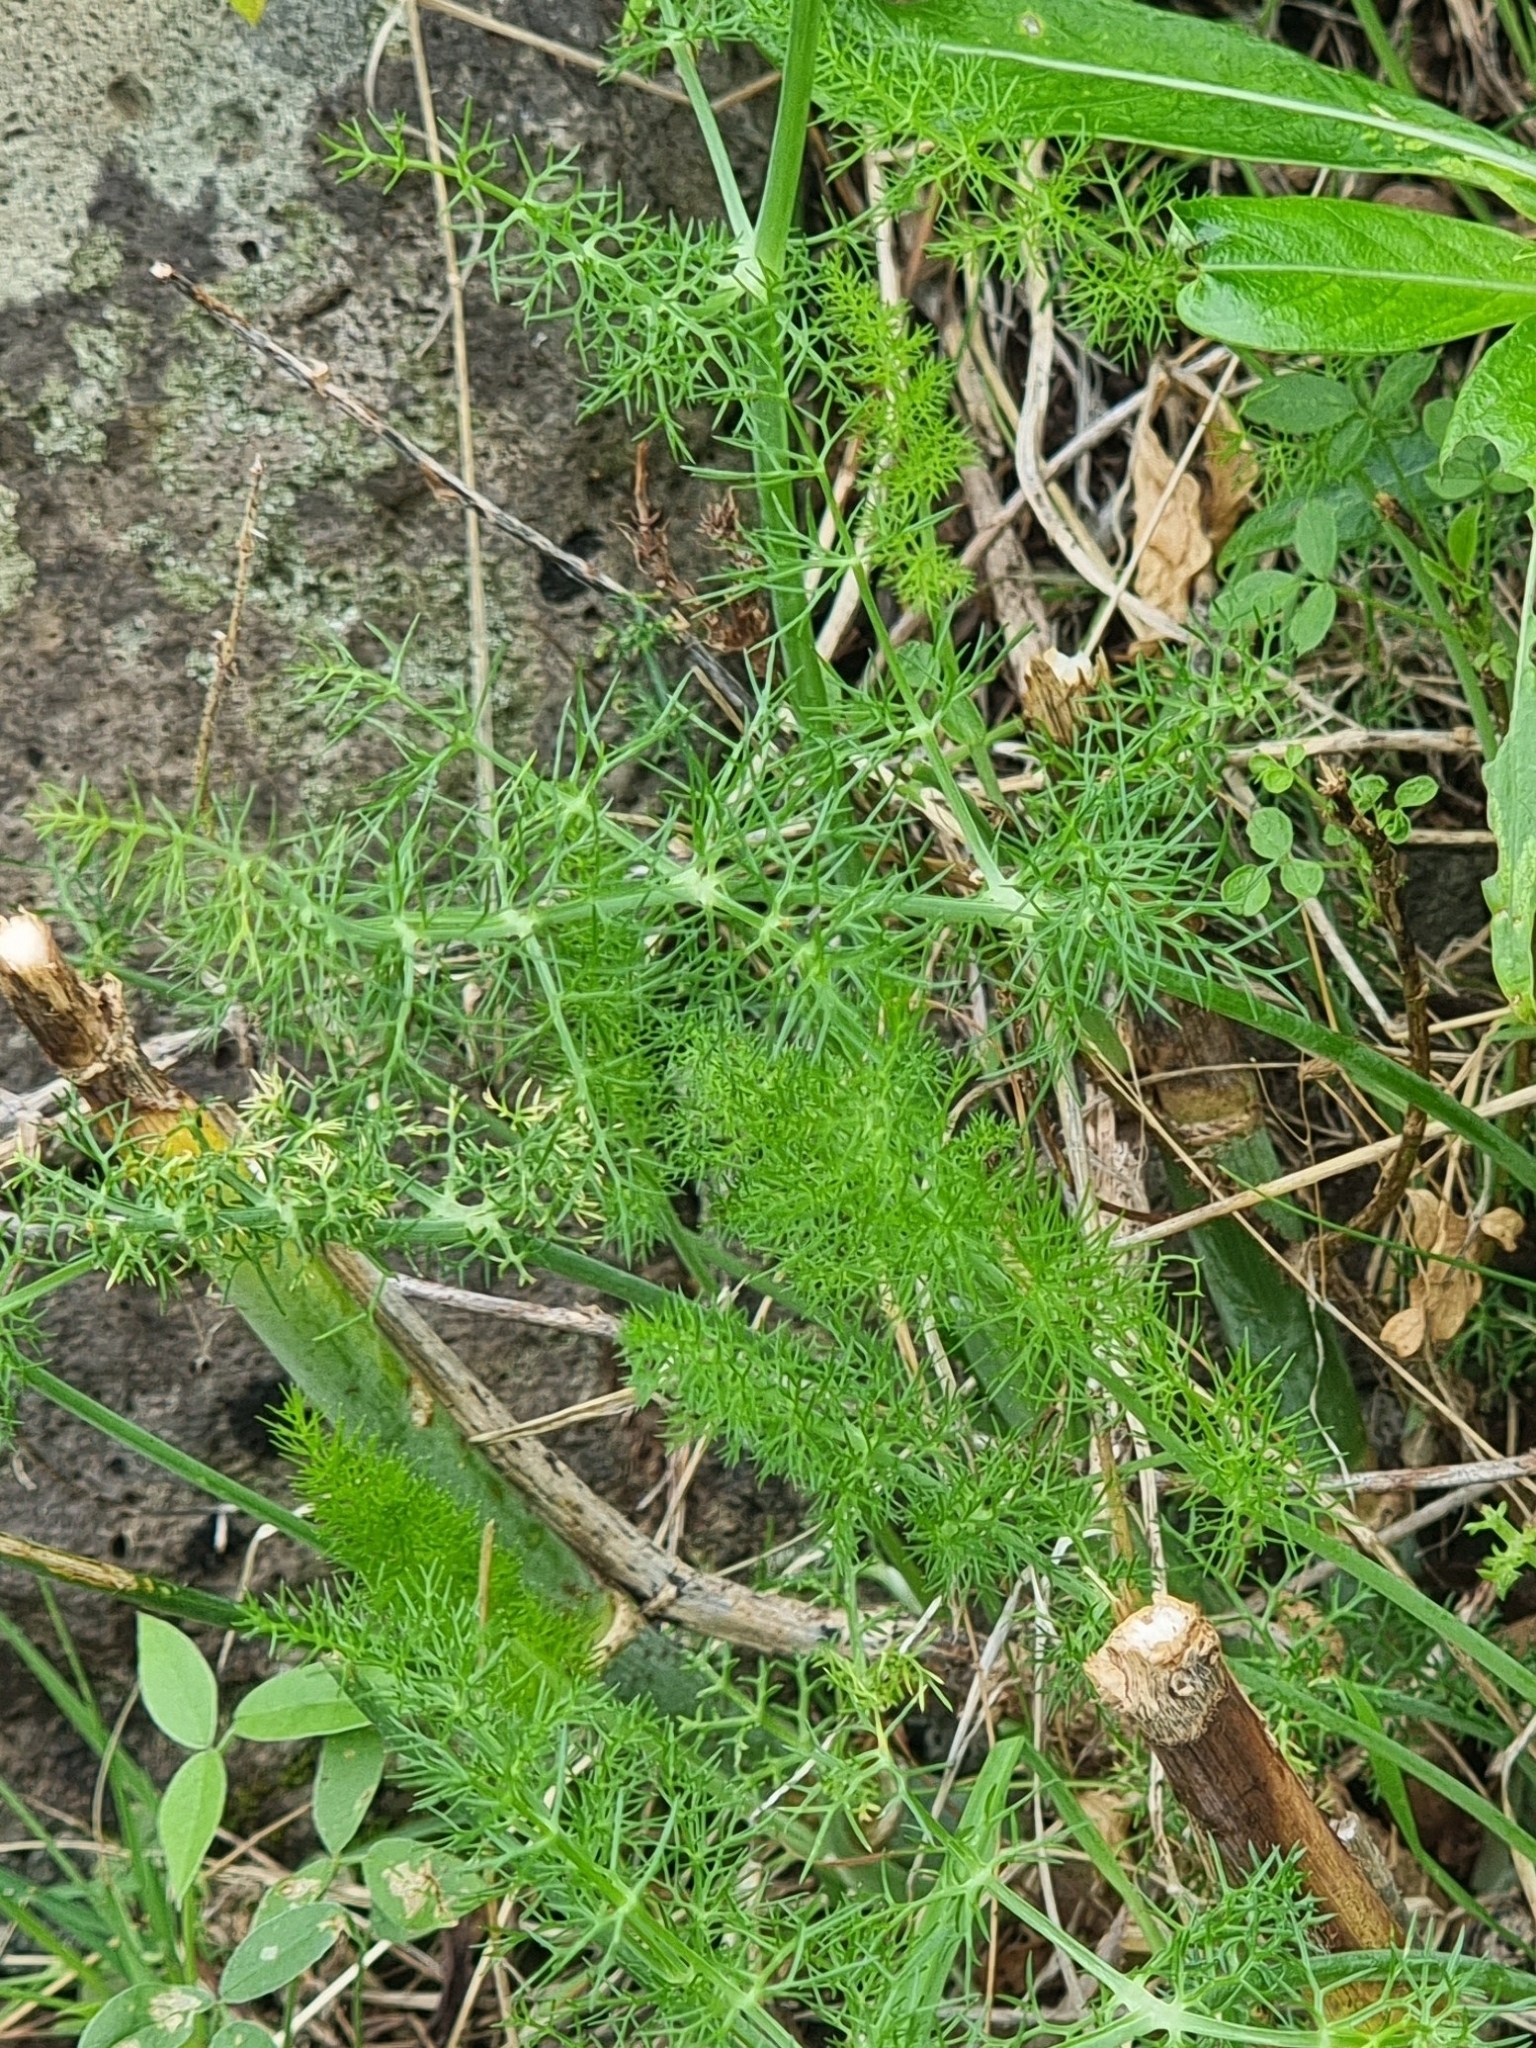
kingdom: Plantae
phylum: Tracheophyta
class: Magnoliopsida
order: Apiales
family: Apiaceae
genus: Foeniculum
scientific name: Foeniculum vulgare
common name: Fennel
